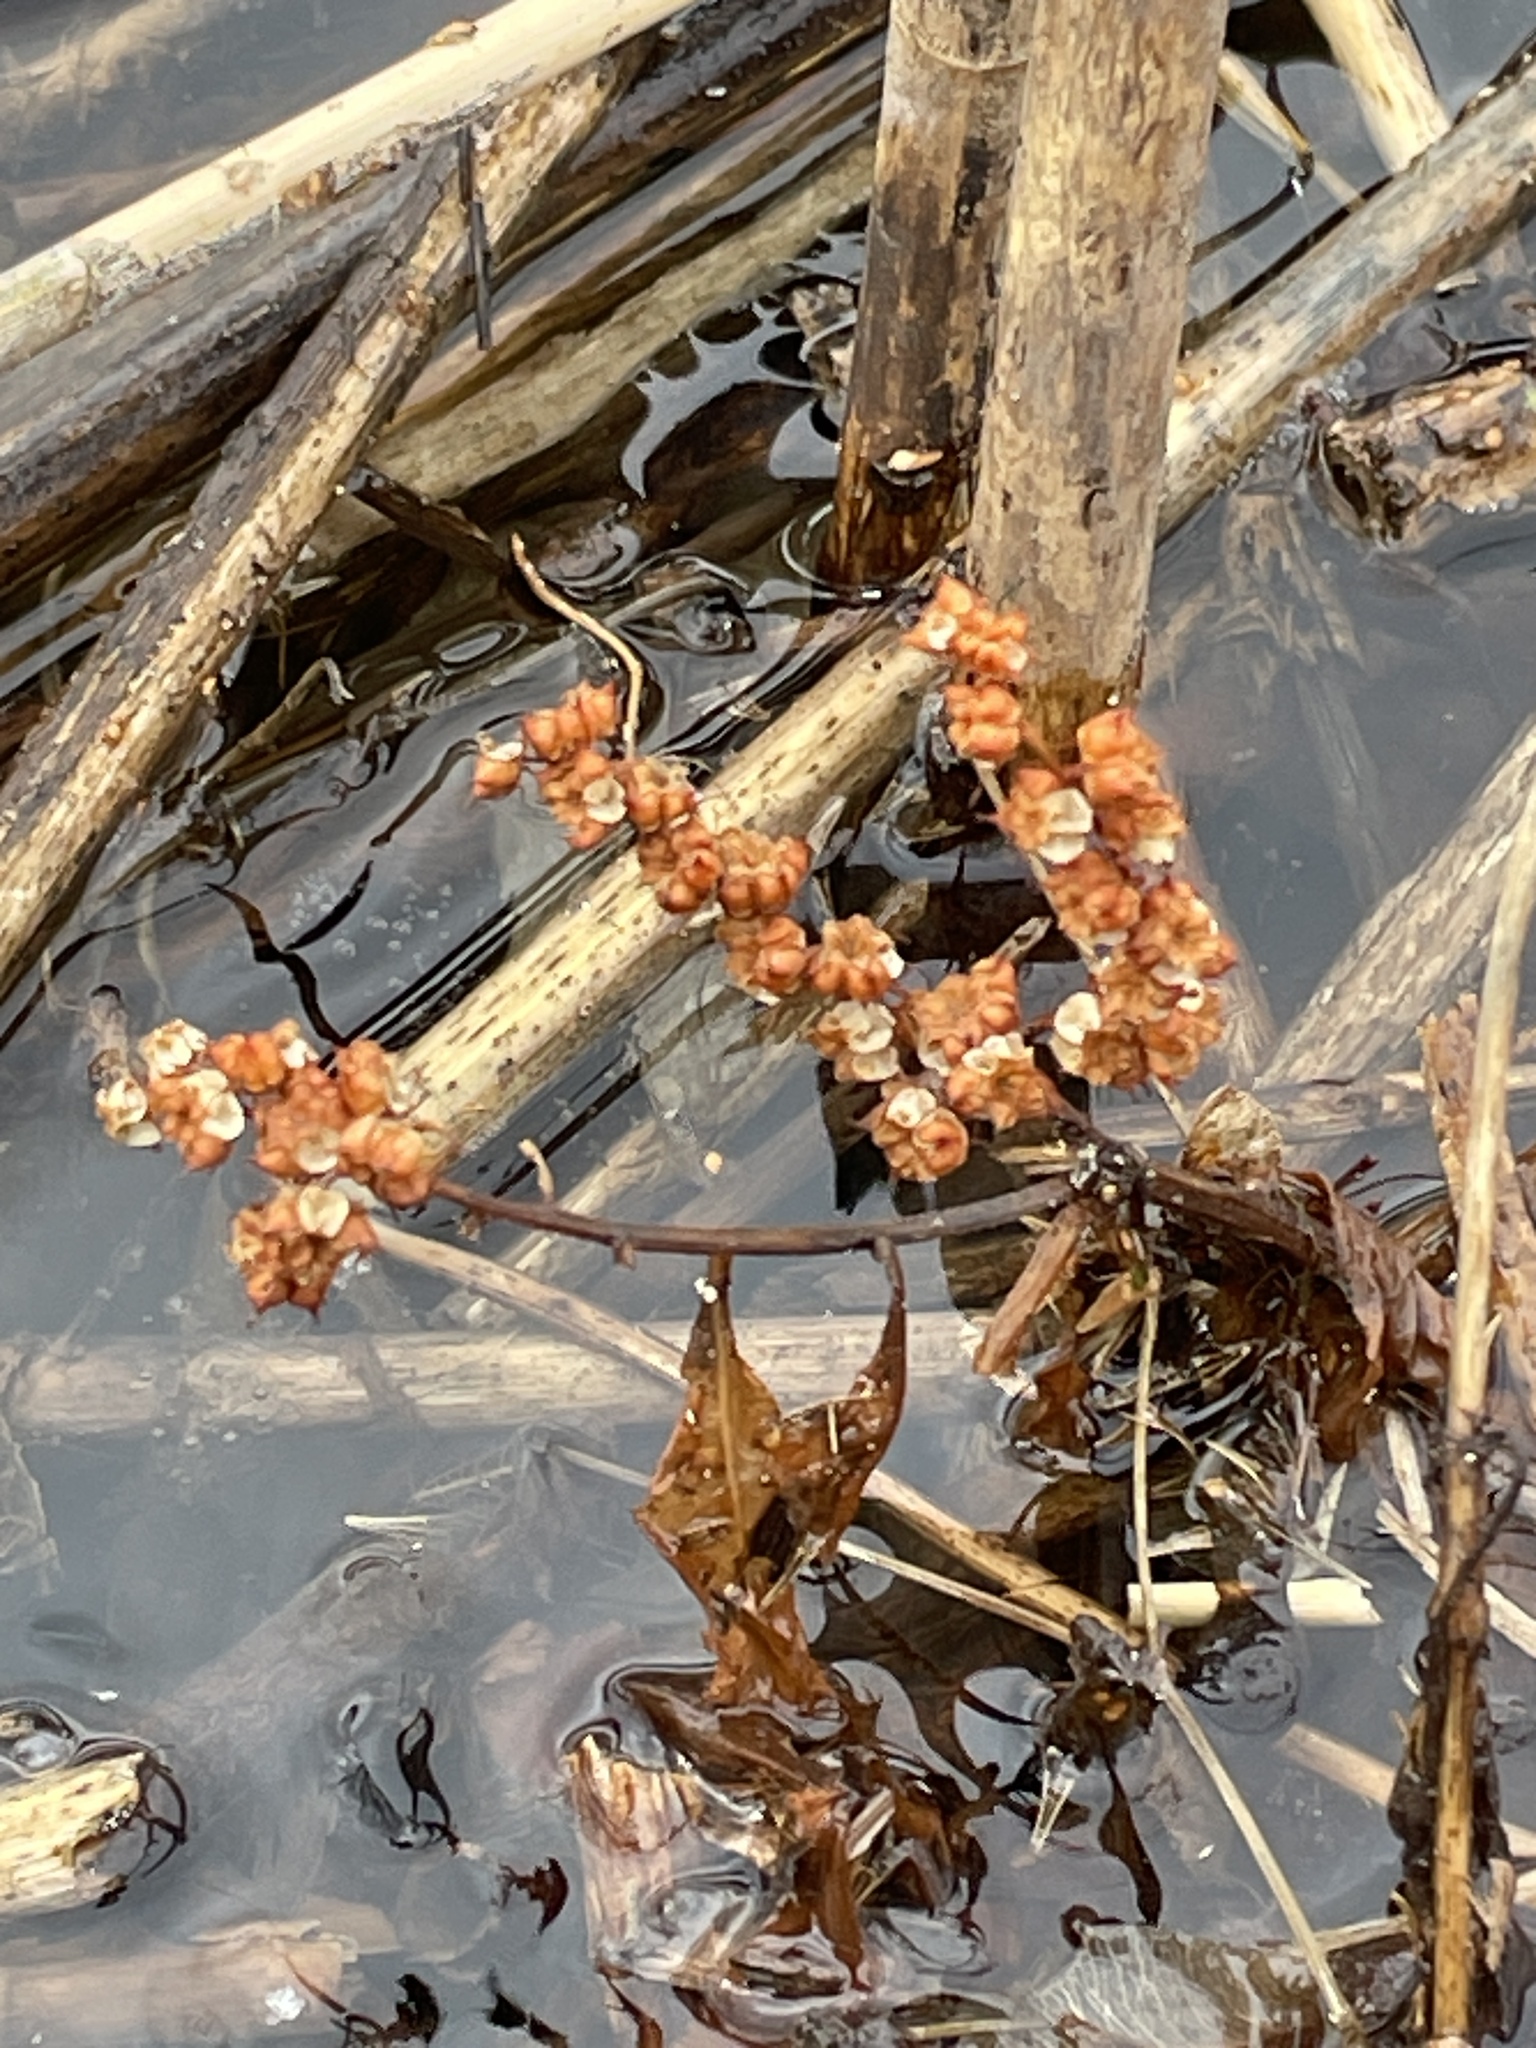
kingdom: Plantae
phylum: Tracheophyta
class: Magnoliopsida
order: Saxifragales
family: Penthoraceae
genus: Penthorum
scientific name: Penthorum sedoides
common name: Ditch stonecrop
